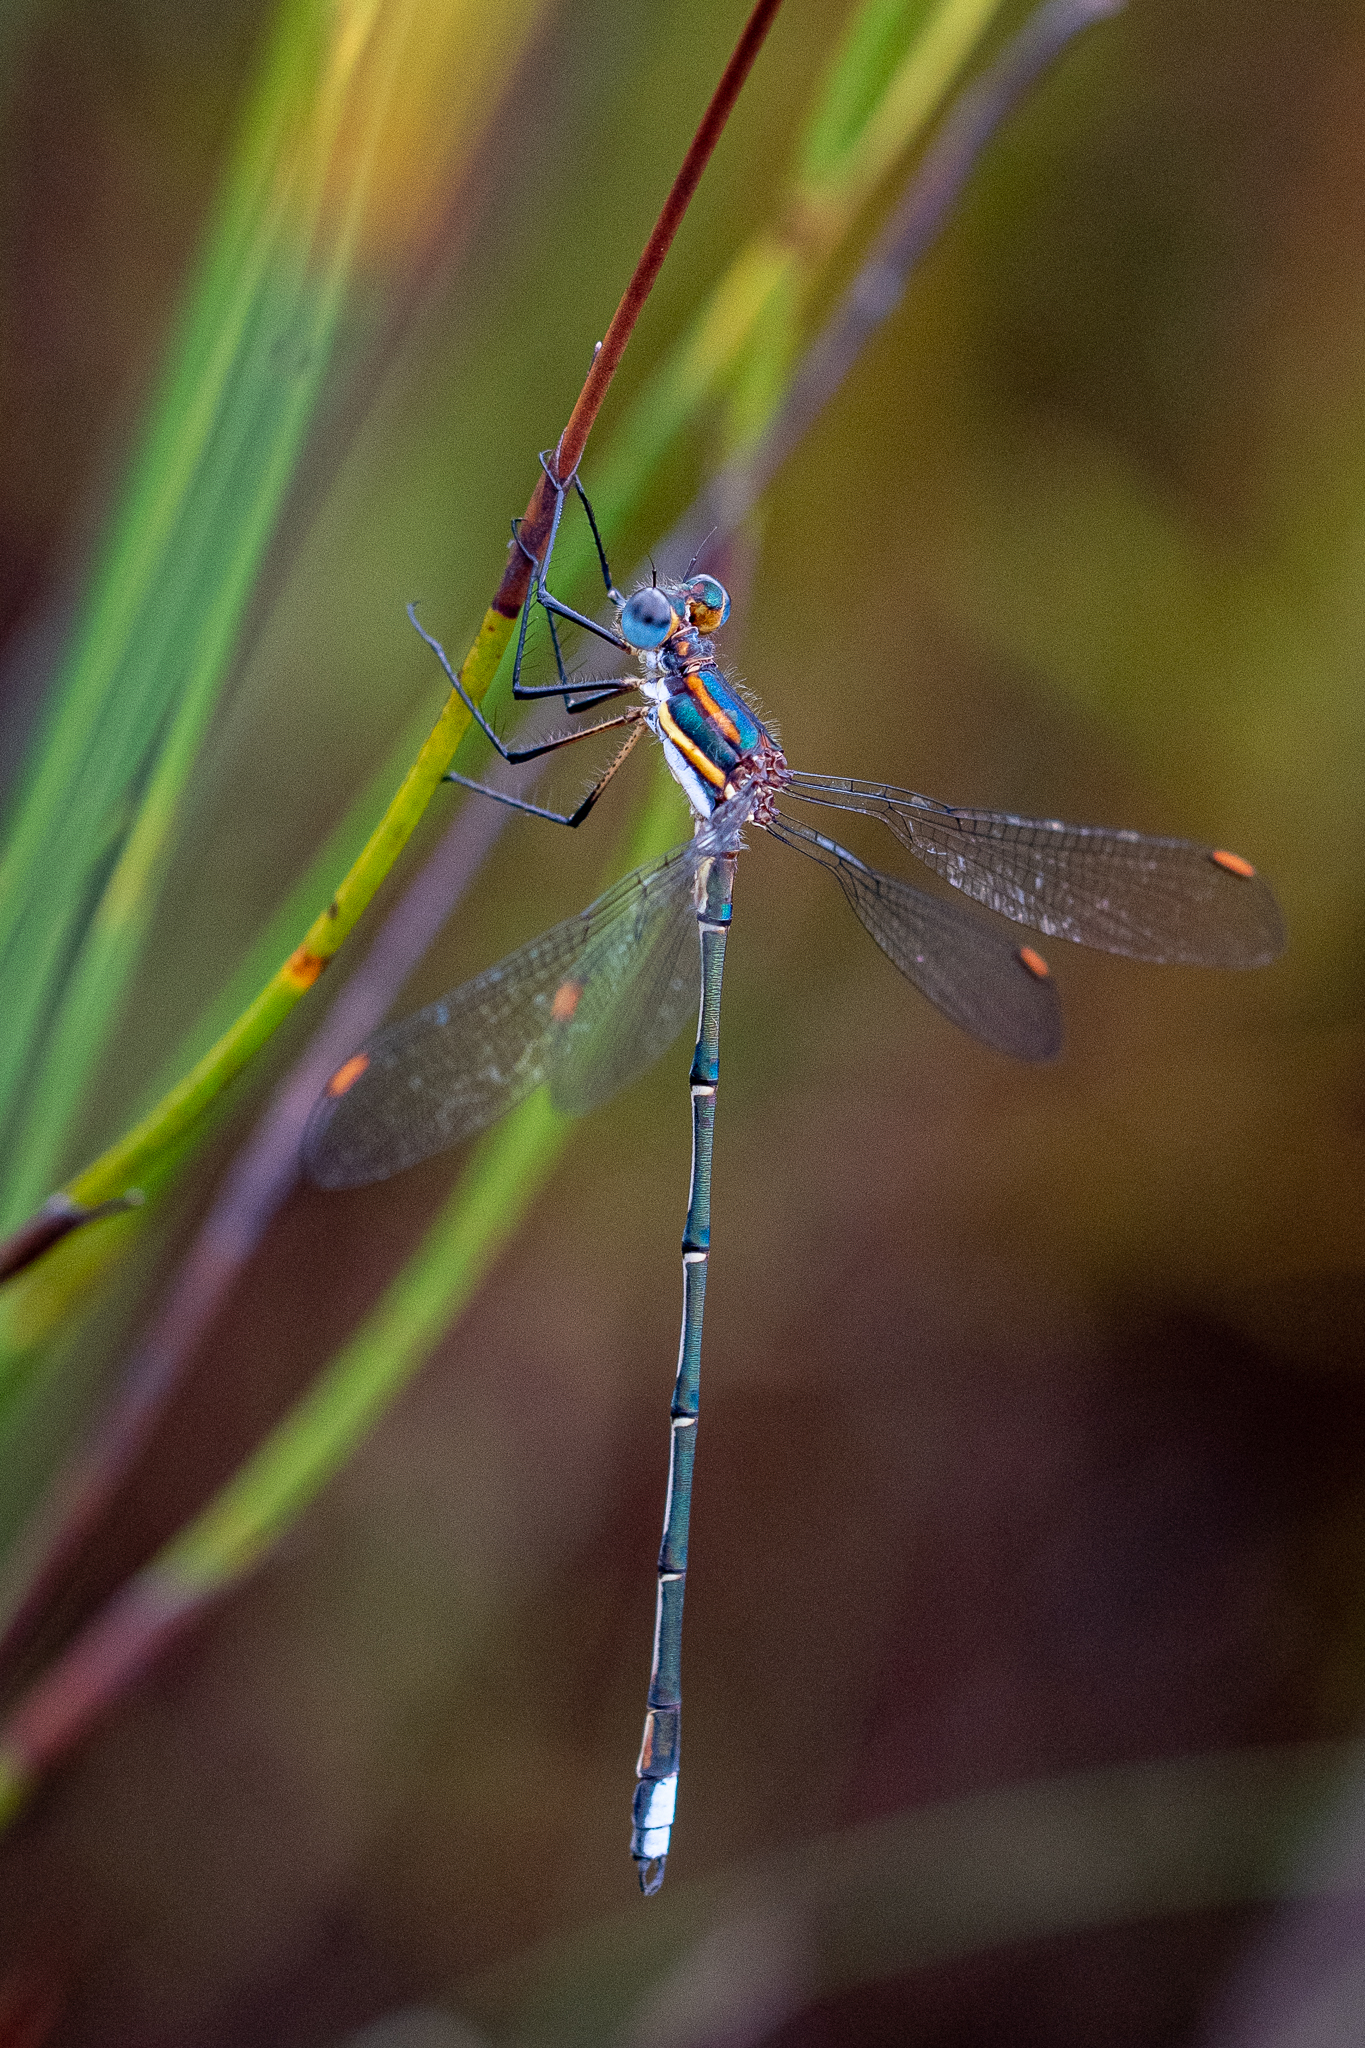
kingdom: Animalia
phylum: Arthropoda
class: Insecta
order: Odonata
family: Synlestidae
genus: Chlorolestes
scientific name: Chlorolestes conspicuus
